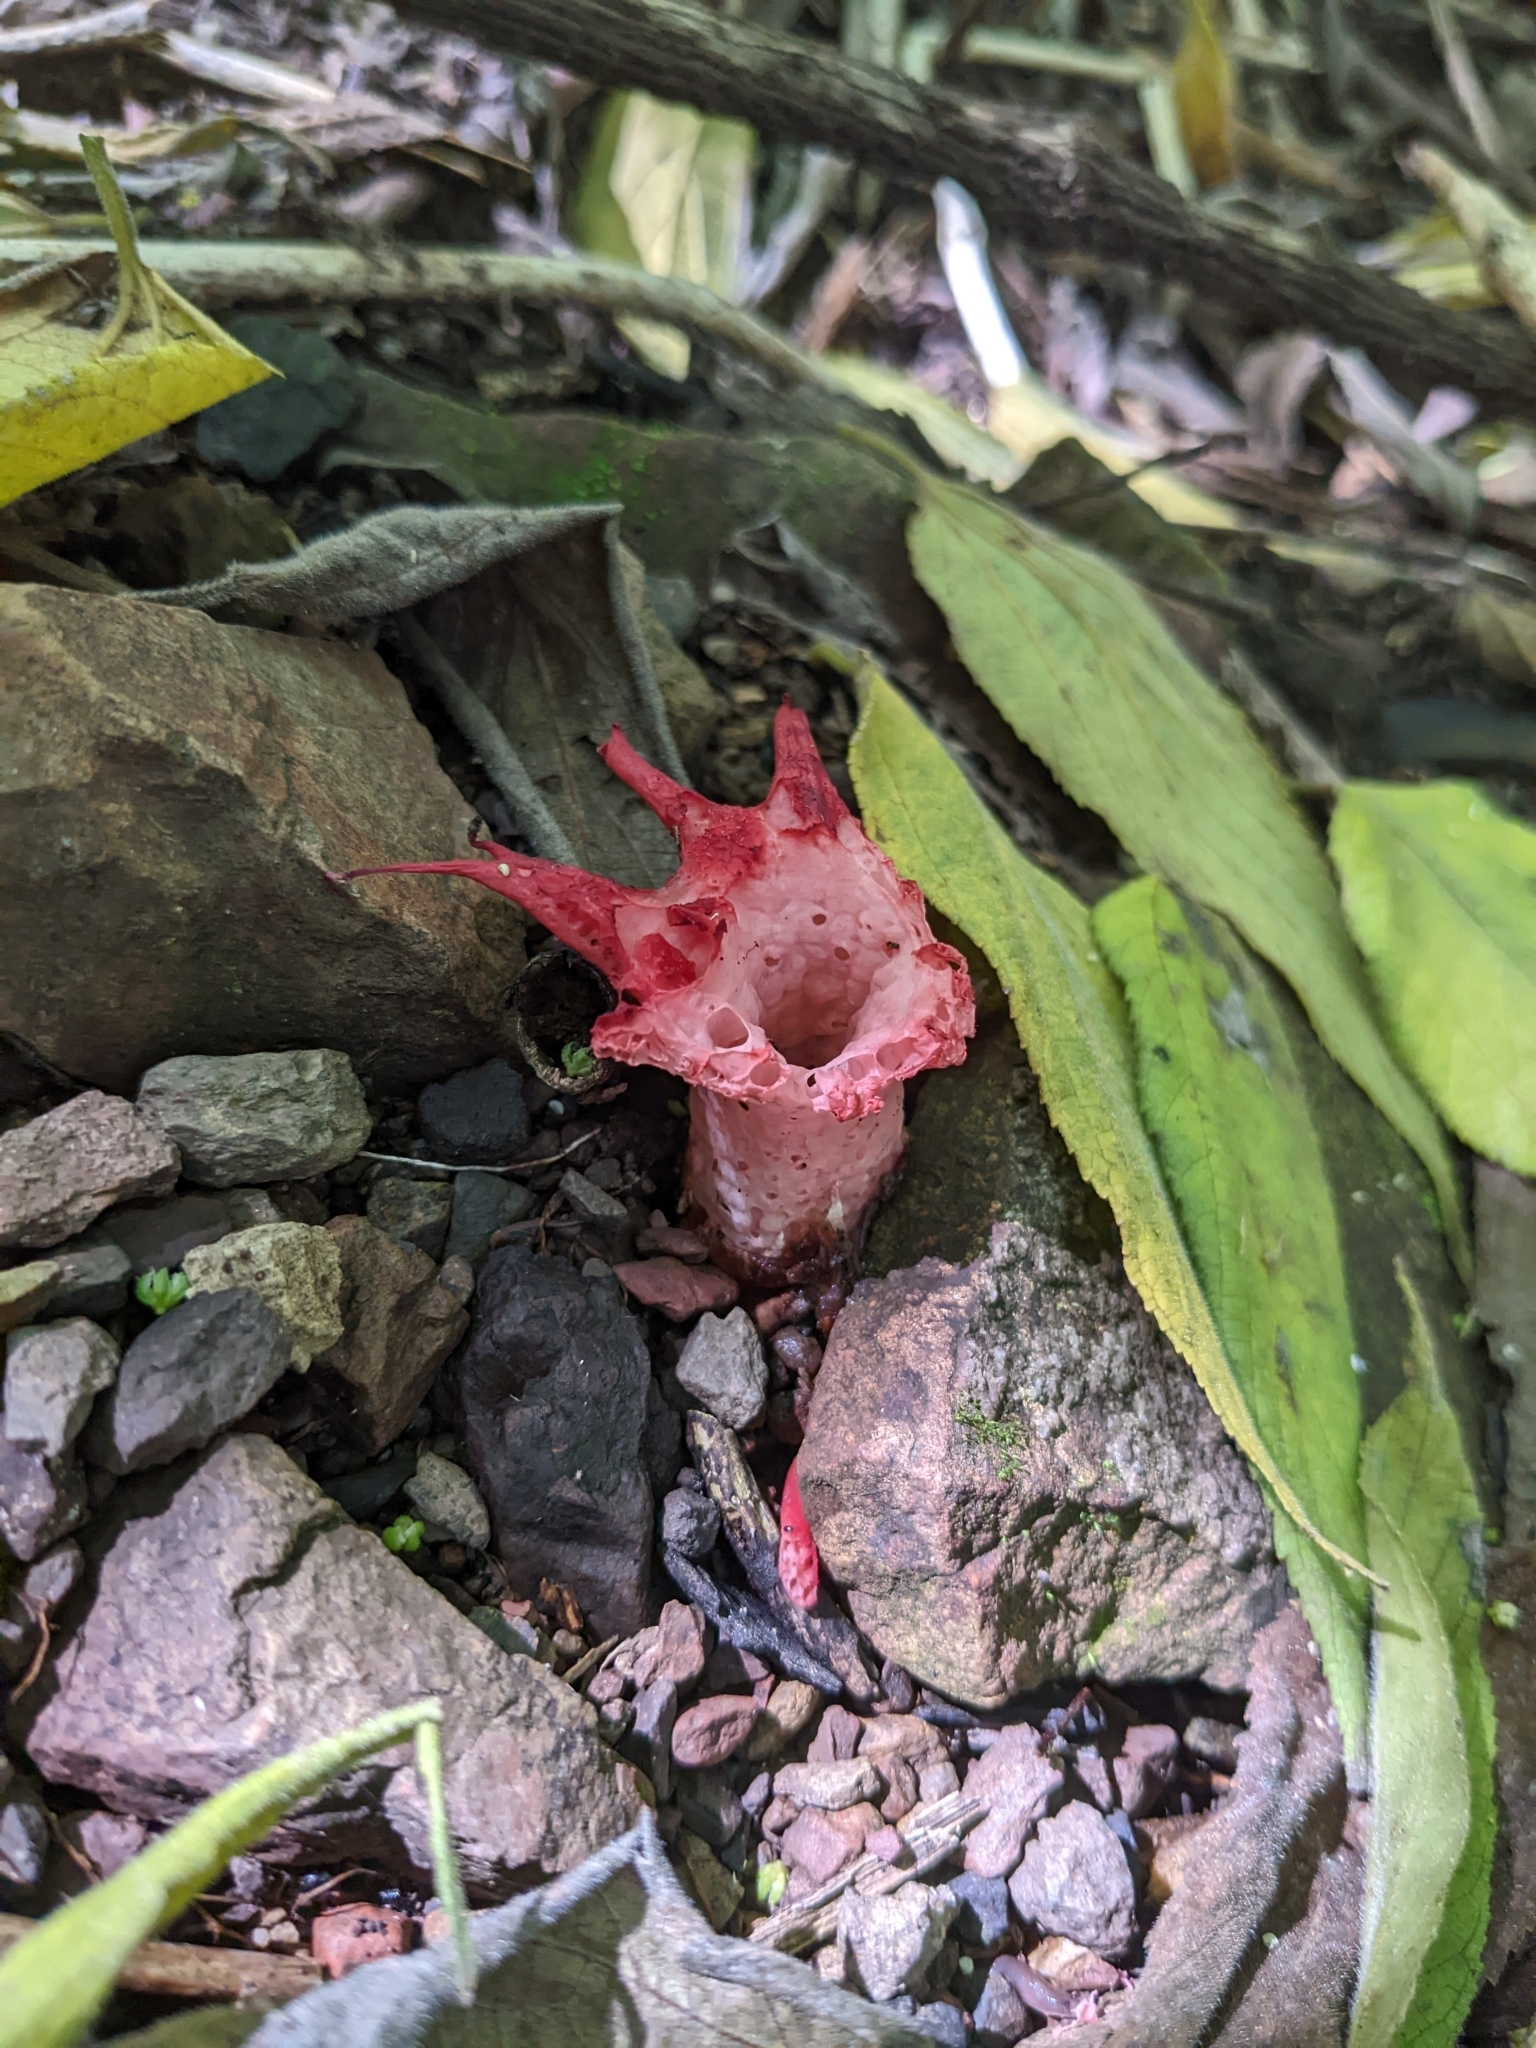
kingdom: Fungi
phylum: Basidiomycota
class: Agaricomycetes
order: Phallales
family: Phallaceae
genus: Aseroe
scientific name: Aseroe rubra
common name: Starfish fungus
